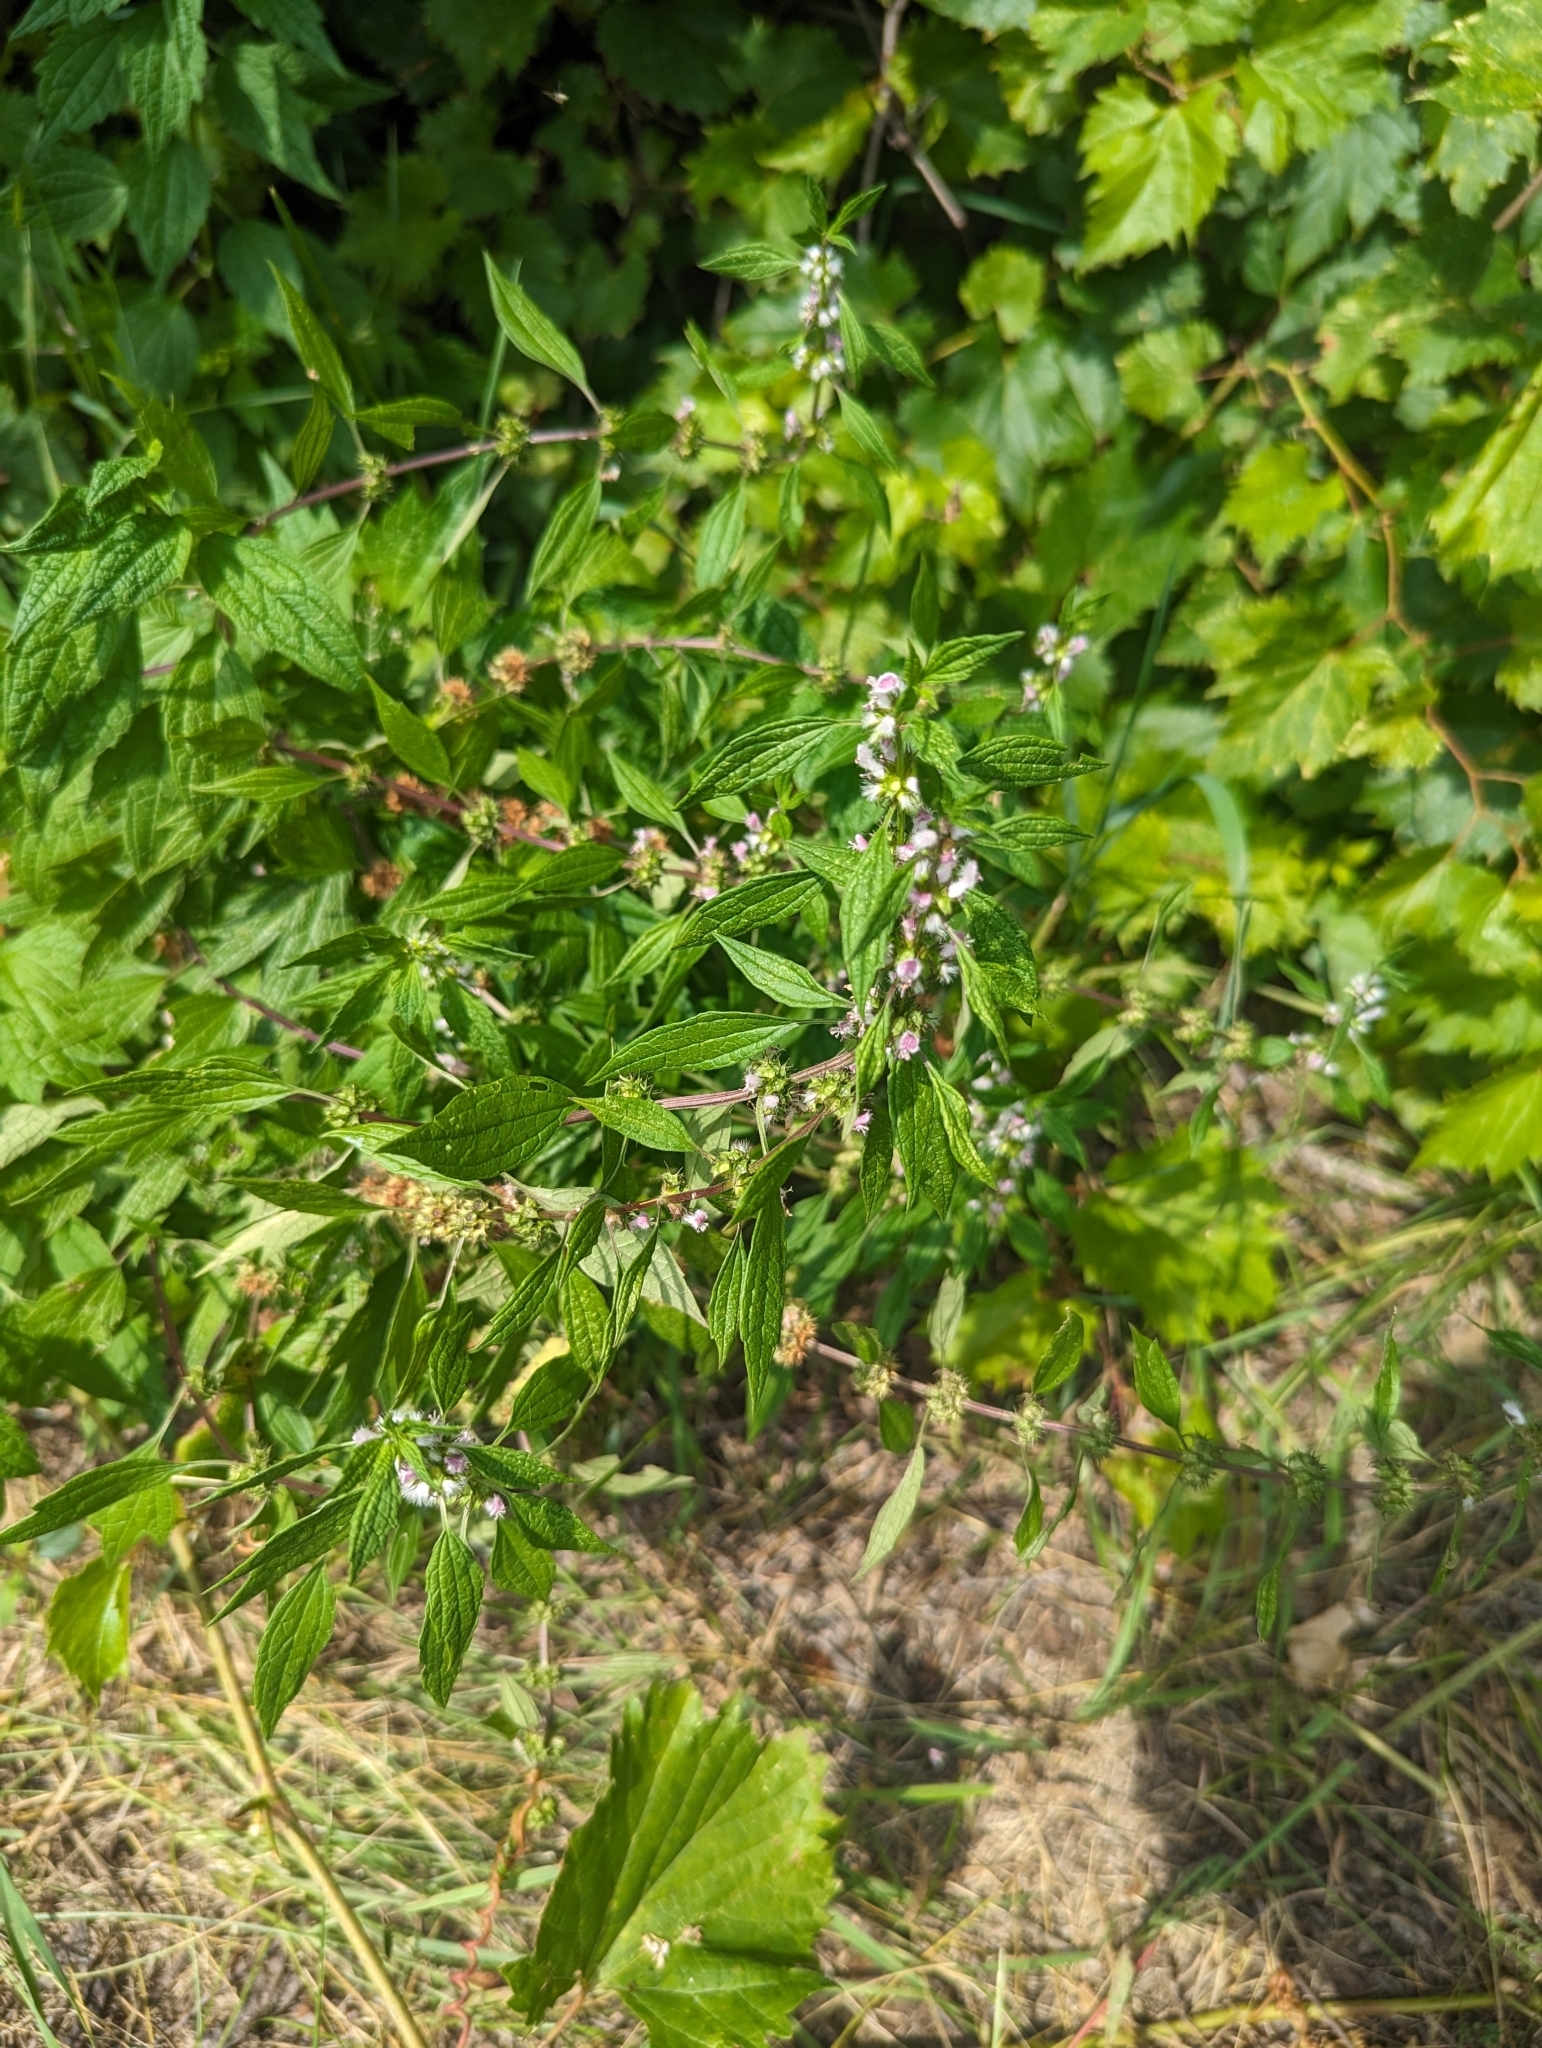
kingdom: Plantae
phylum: Tracheophyta
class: Magnoliopsida
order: Lamiales
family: Lamiaceae
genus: Leonurus
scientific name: Leonurus cardiaca
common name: Motherwort
